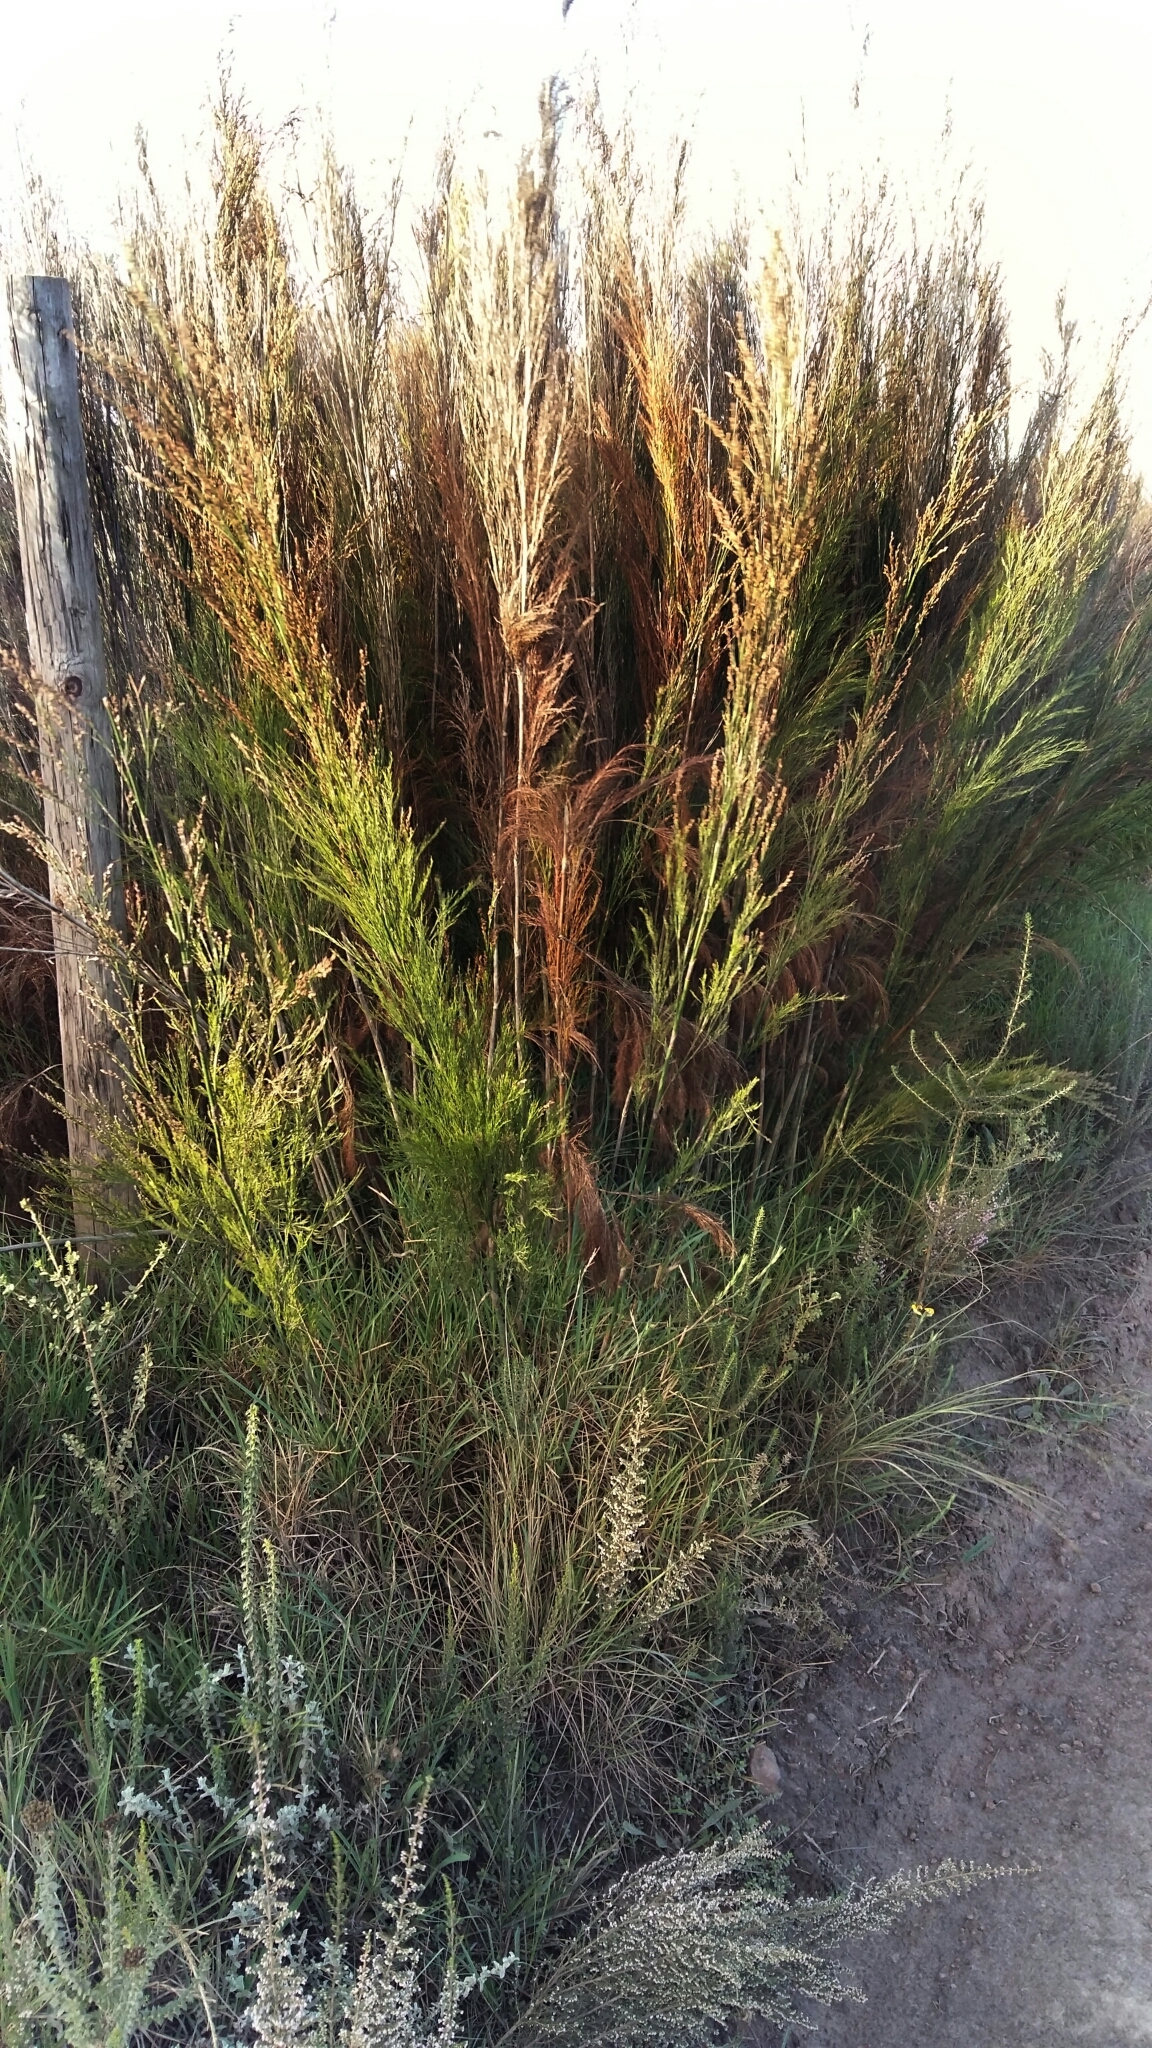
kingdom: Plantae
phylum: Tracheophyta
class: Liliopsida
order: Poales
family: Restionaceae
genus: Restio
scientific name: Restio paniculatus
